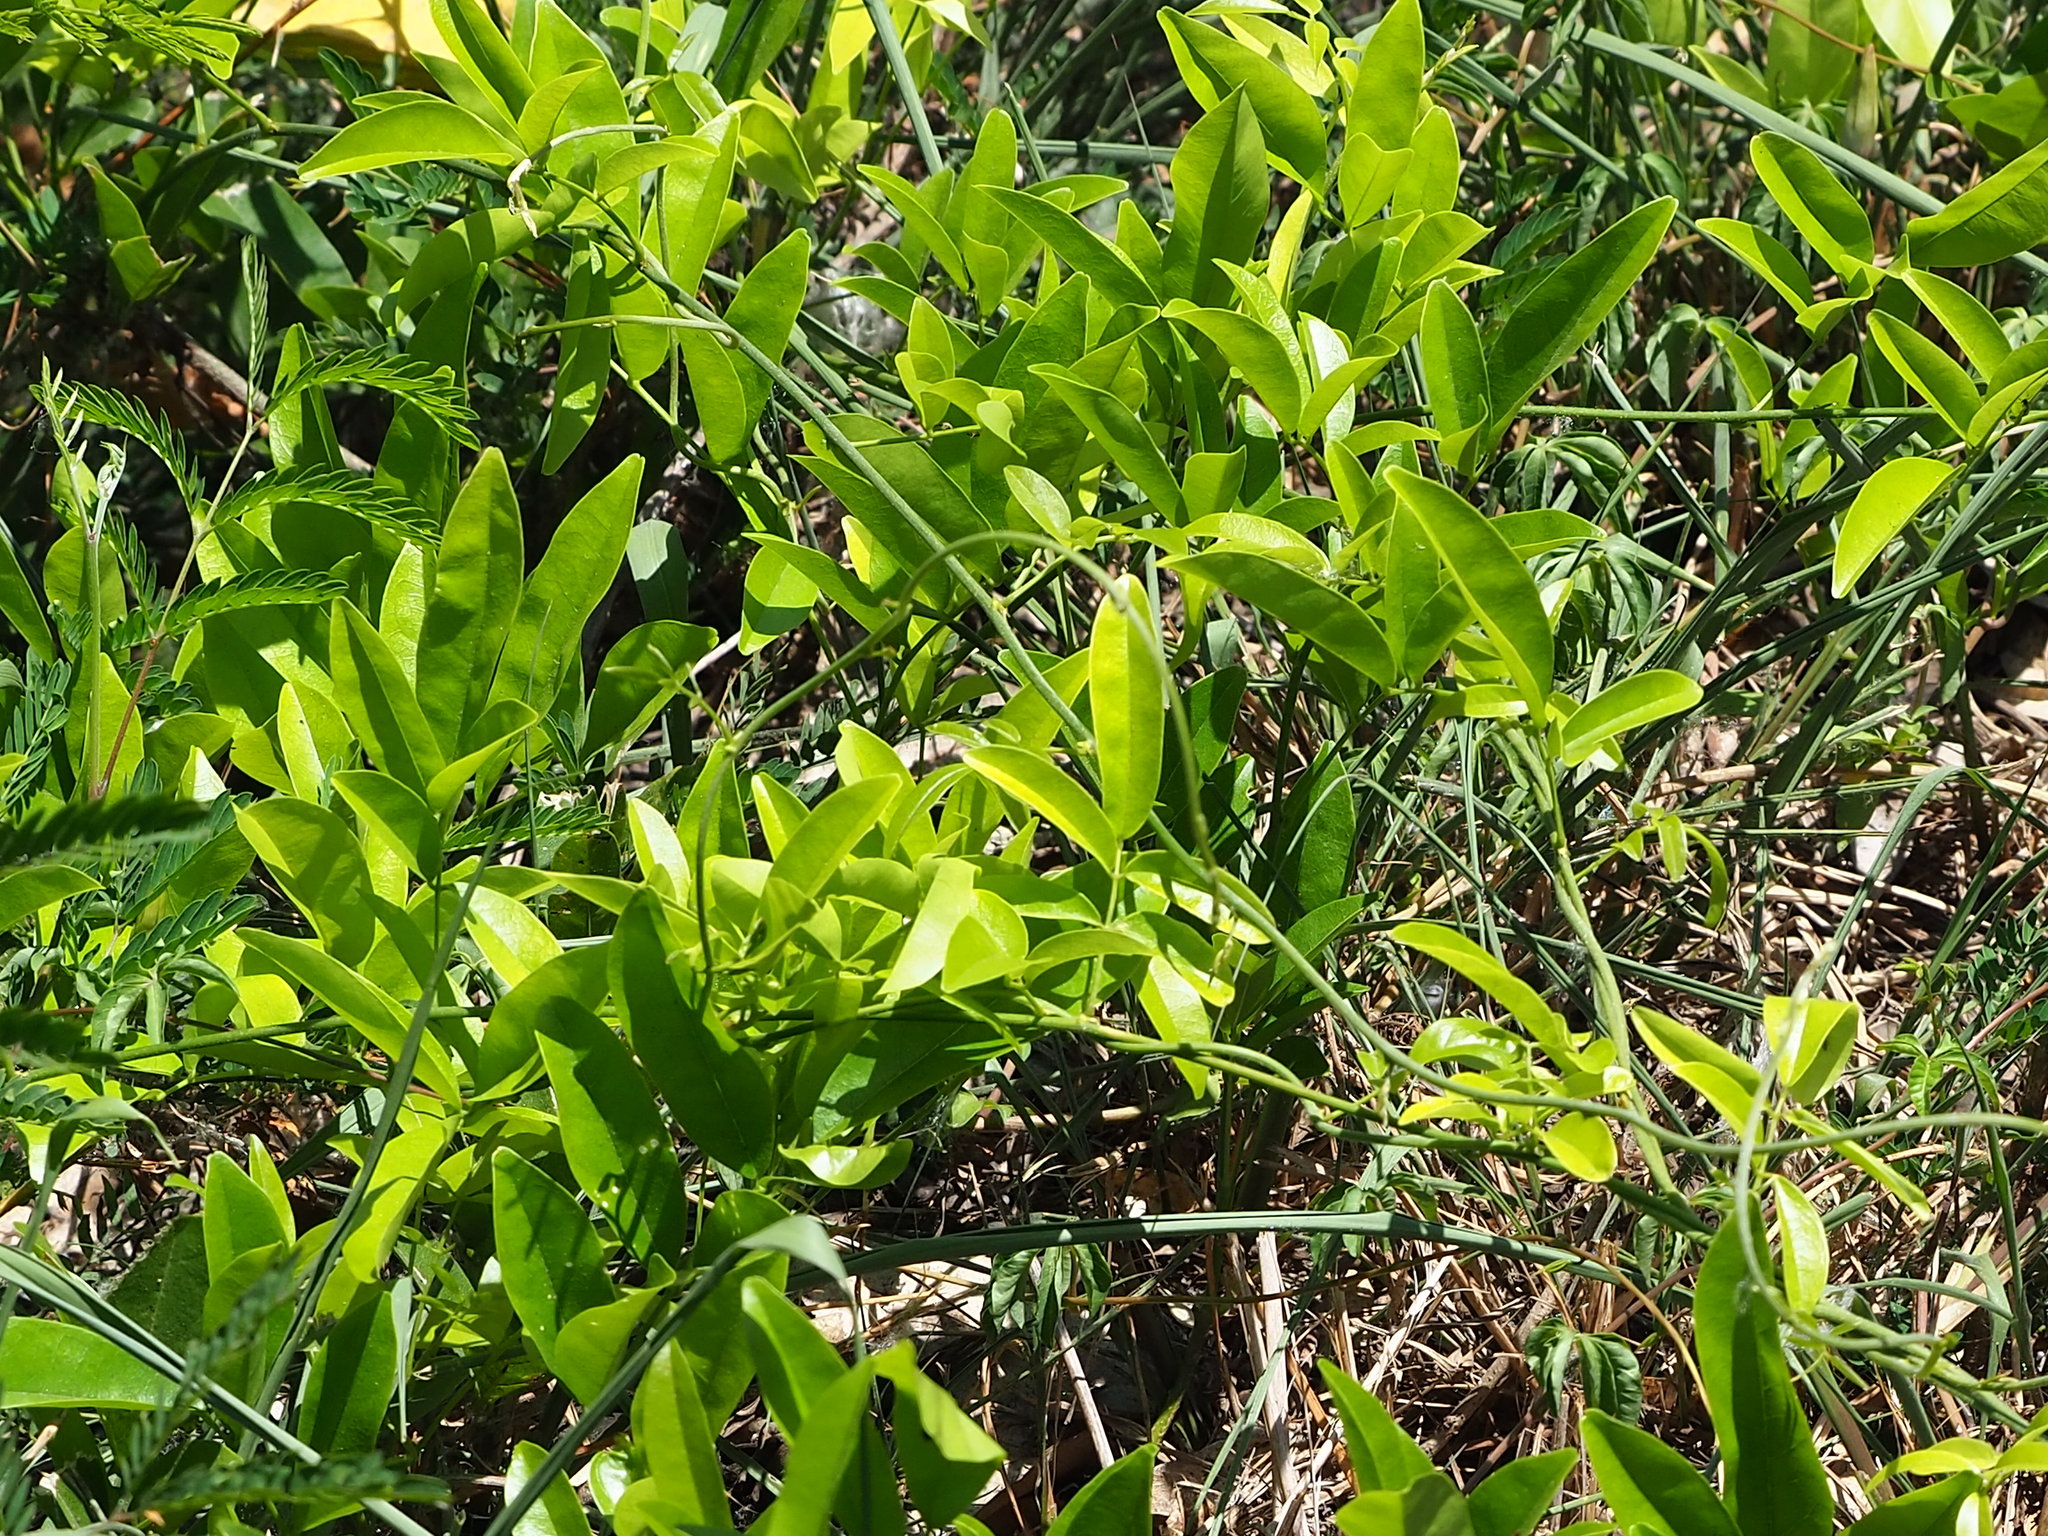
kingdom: Plantae
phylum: Tracheophyta
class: Magnoliopsida
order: Fabales
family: Fabaceae
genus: Wisteriopsis
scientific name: Wisteriopsis reticulata
